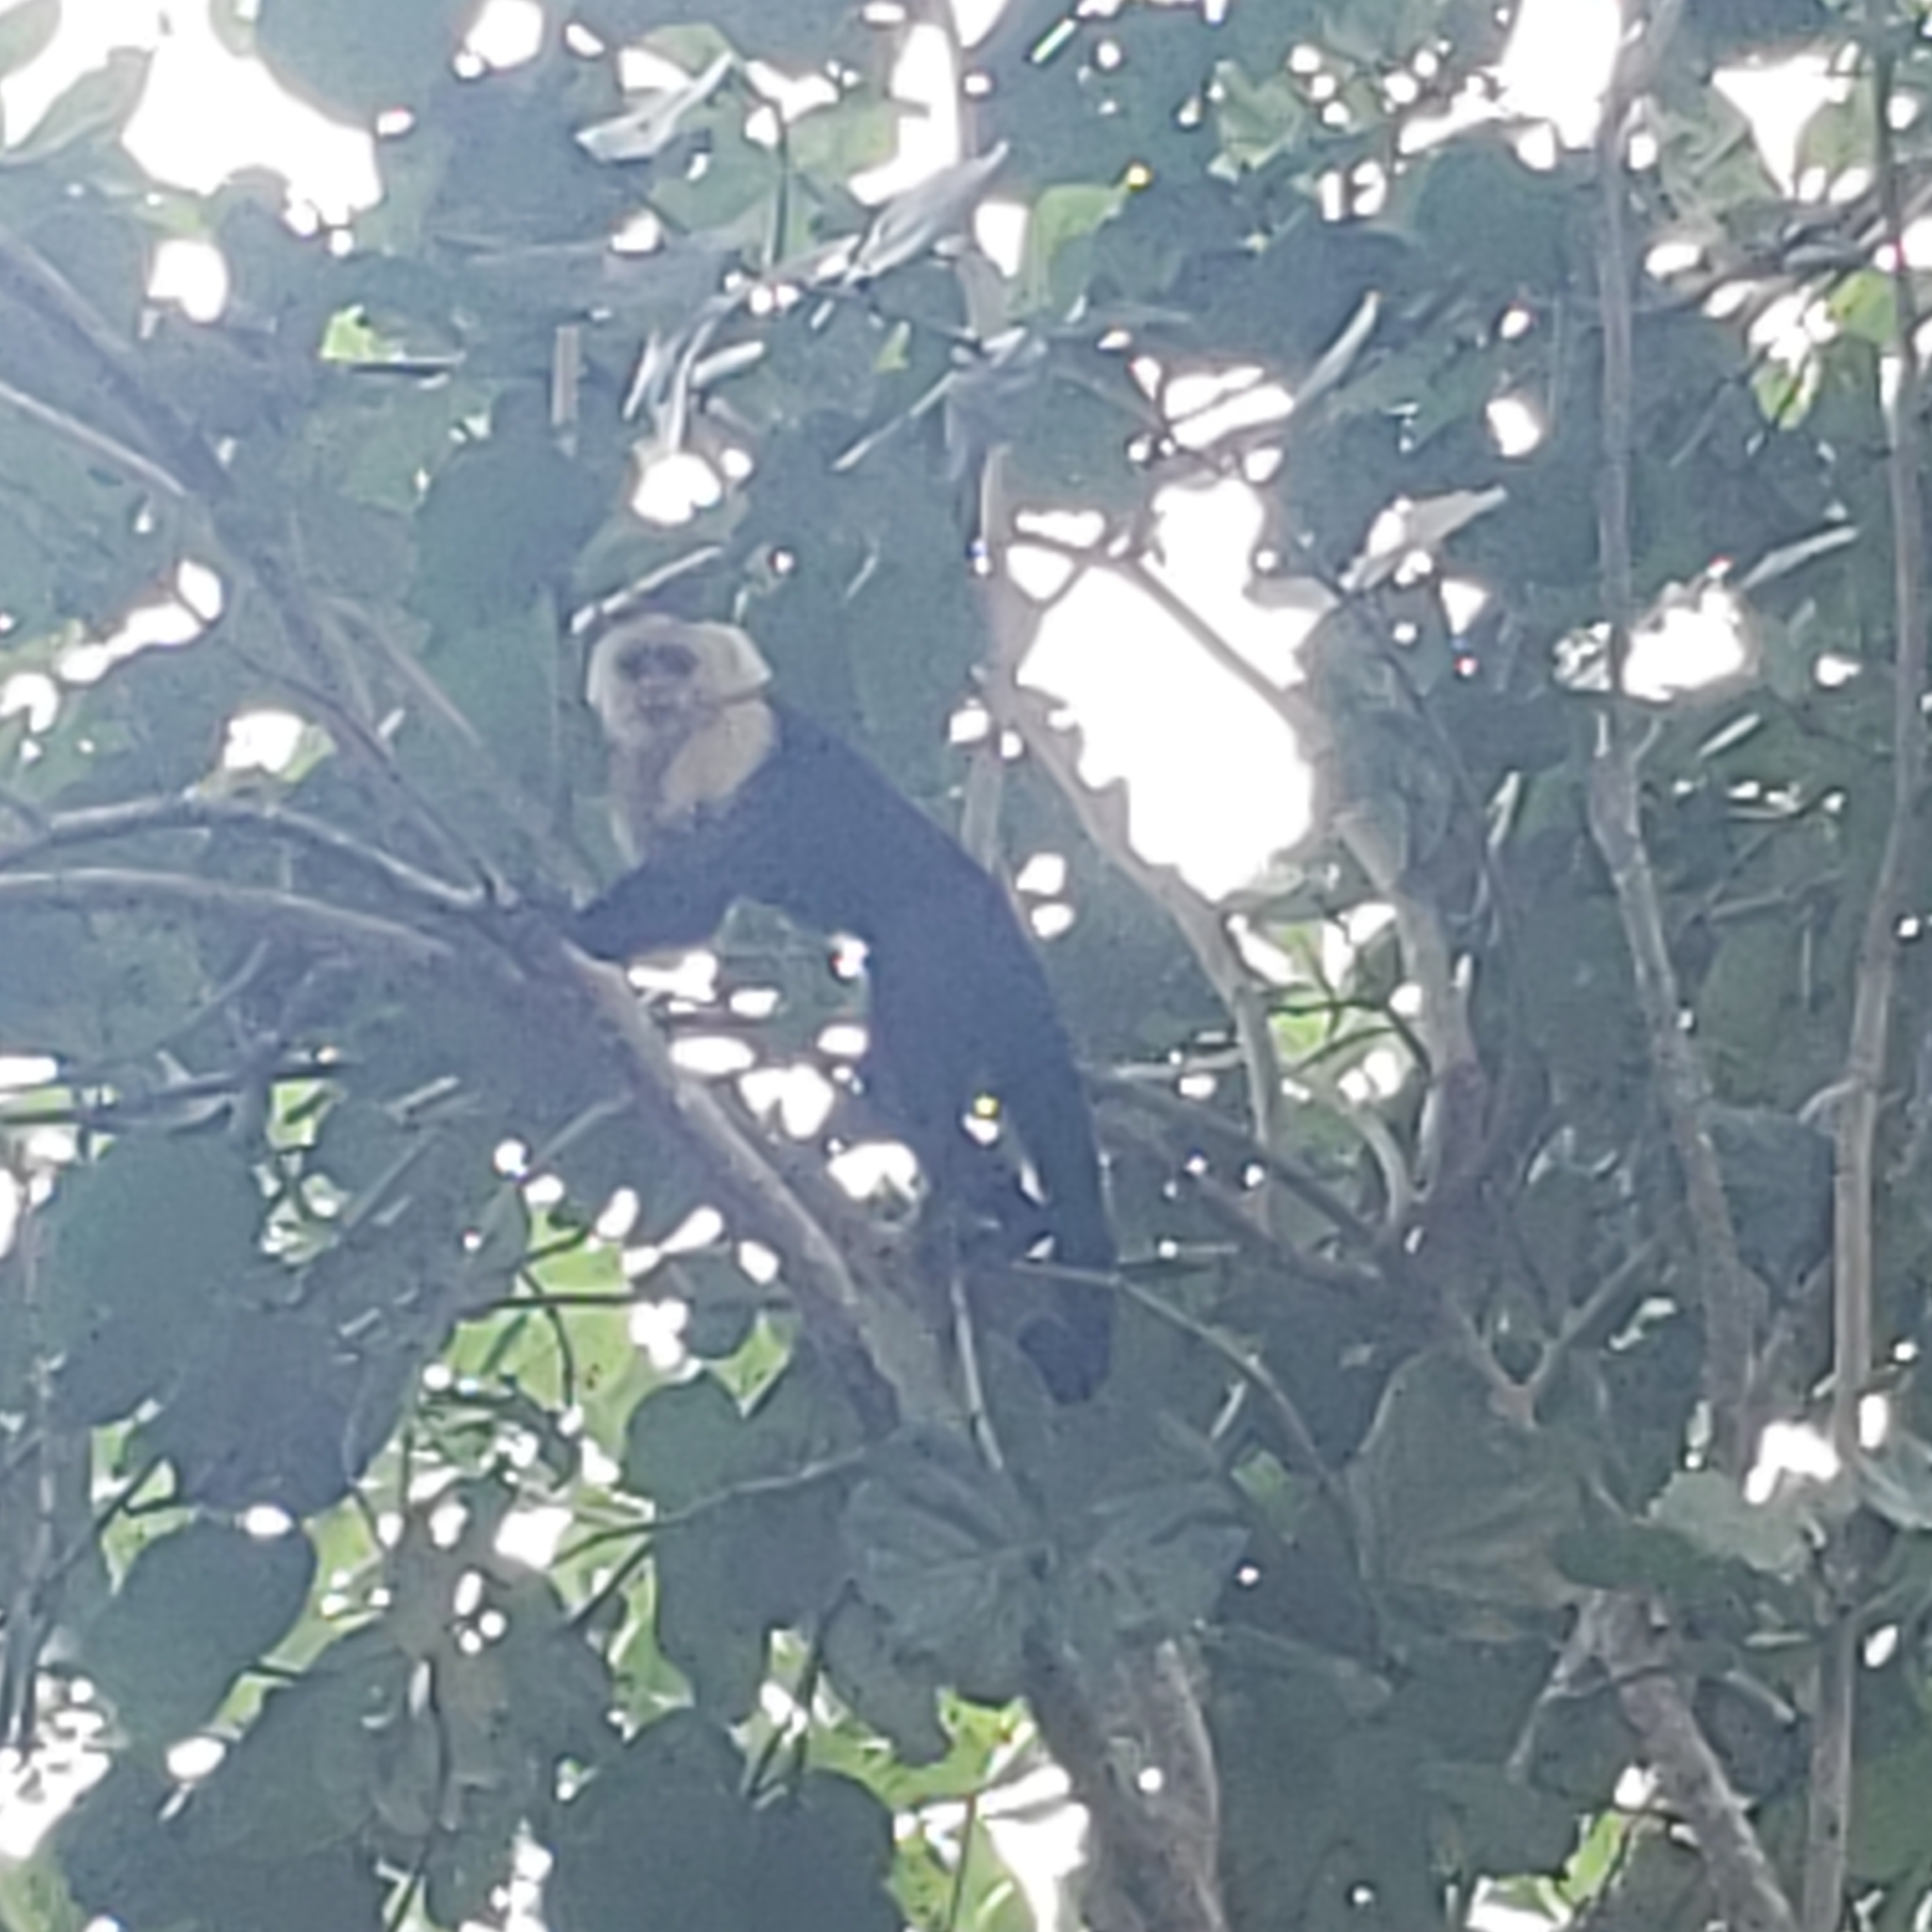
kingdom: Animalia
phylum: Chordata
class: Mammalia
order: Primates
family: Cebidae
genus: Cebus
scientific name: Cebus imitator
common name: Panamanian white-faced capuchin
